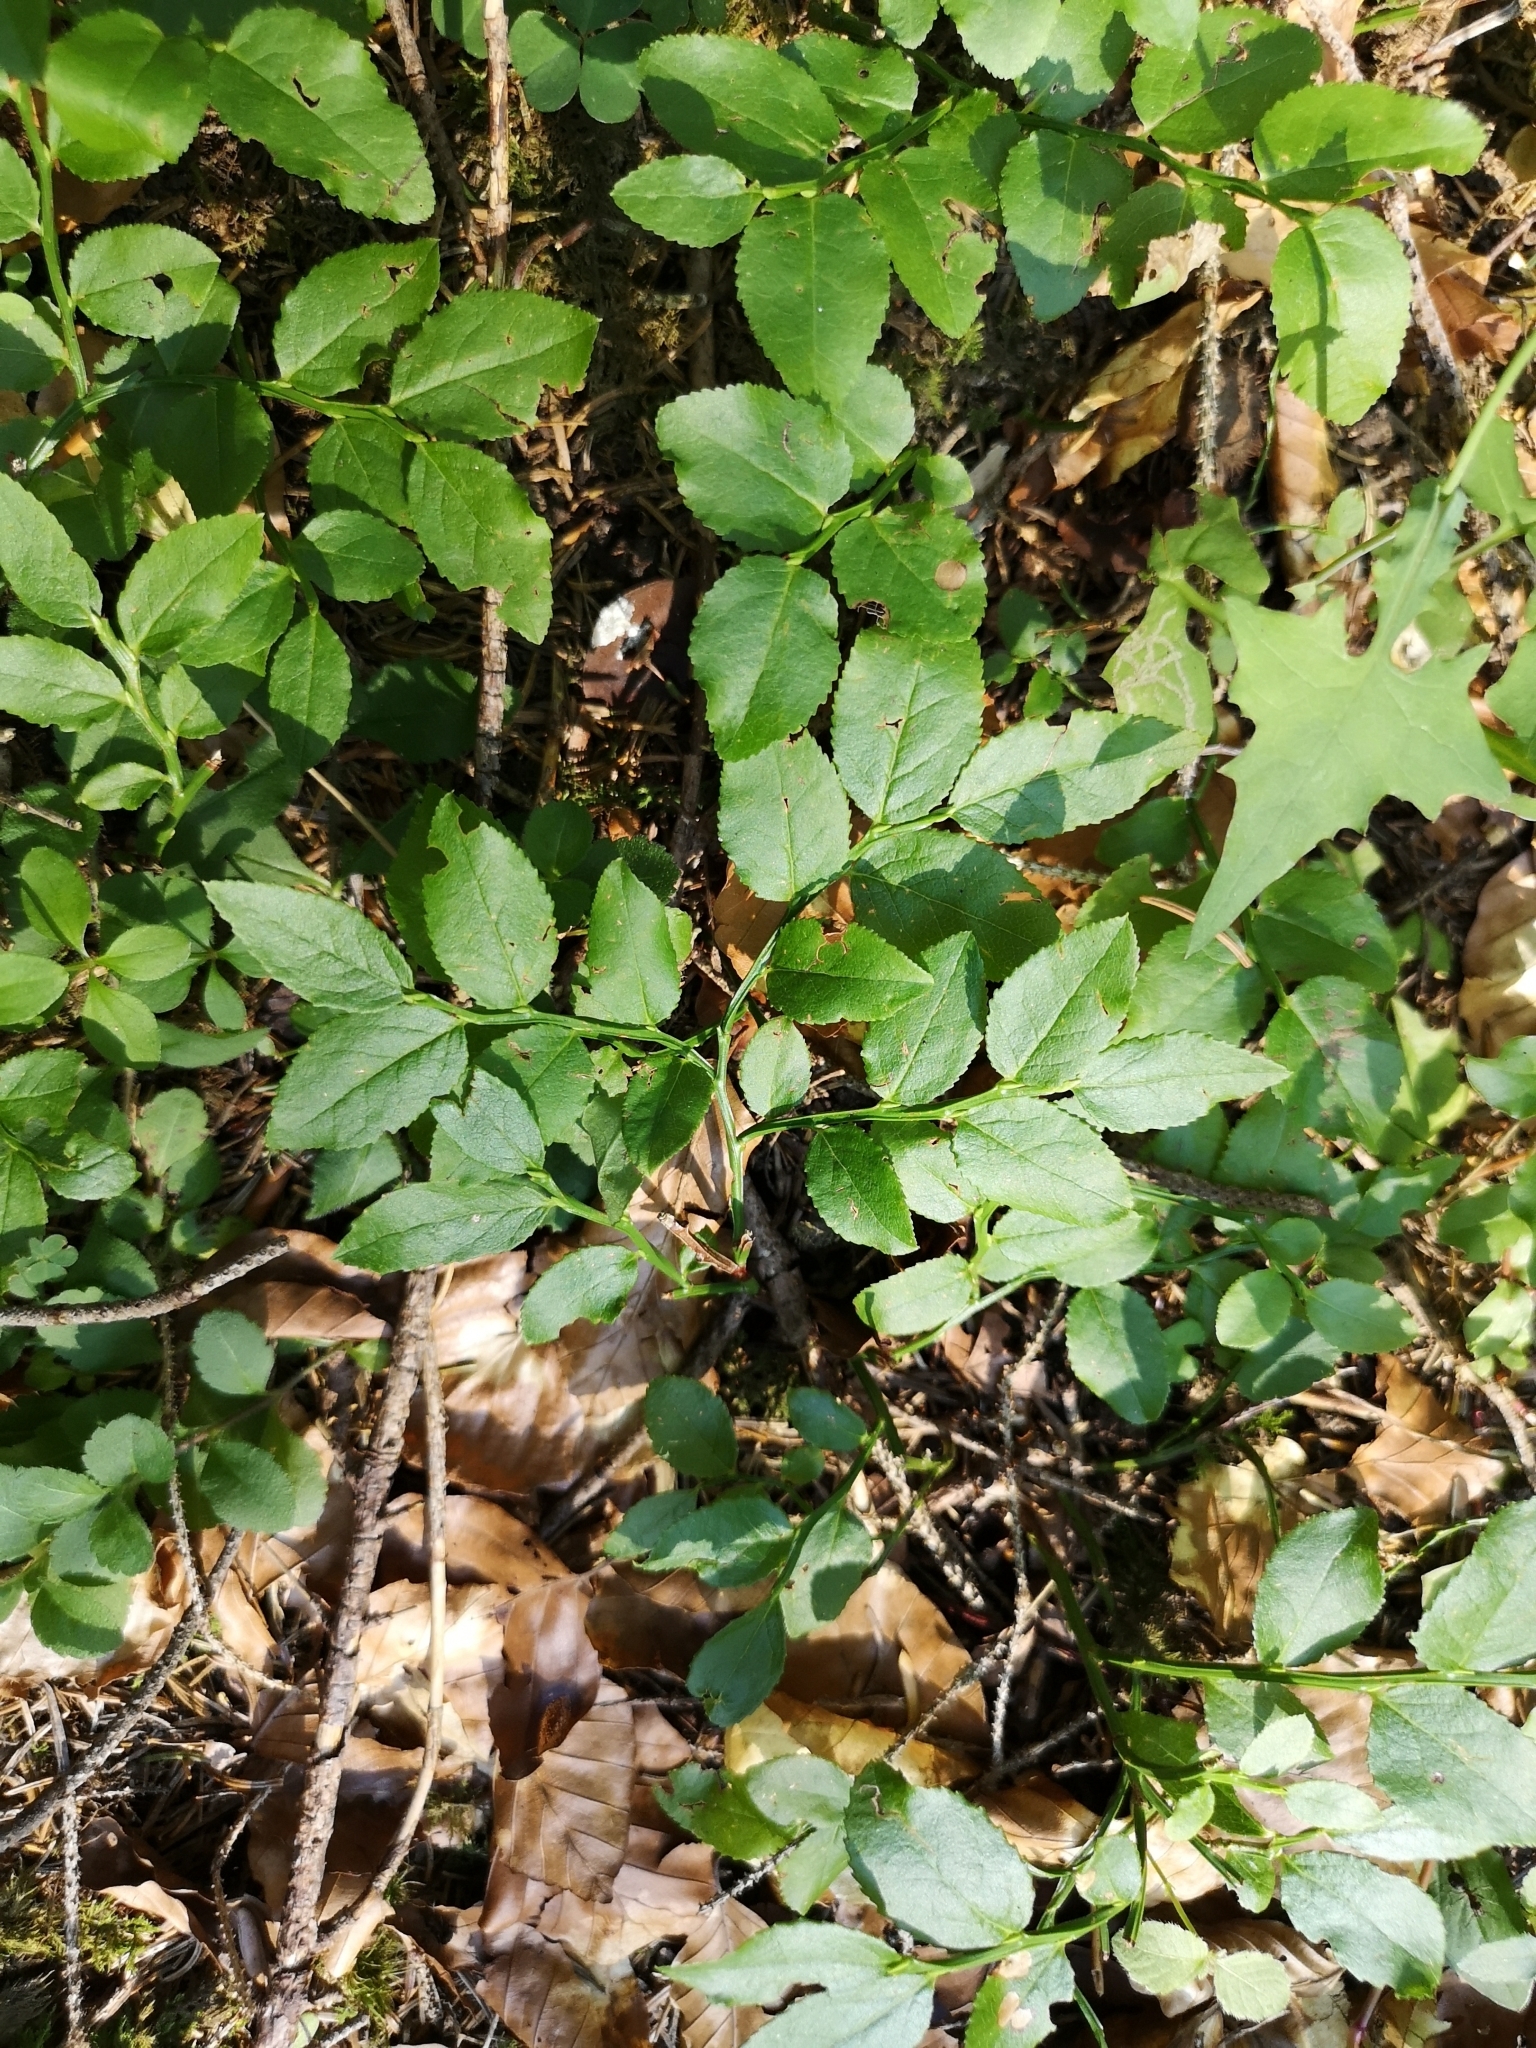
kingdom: Plantae
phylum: Tracheophyta
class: Magnoliopsida
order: Ericales
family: Ericaceae
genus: Vaccinium
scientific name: Vaccinium myrtillus
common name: Bilberry
